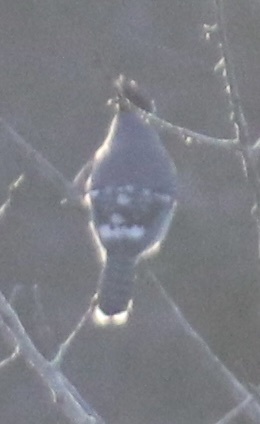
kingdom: Animalia
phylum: Chordata
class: Aves
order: Passeriformes
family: Corvidae
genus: Cyanocitta
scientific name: Cyanocitta cristata
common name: Blue jay
